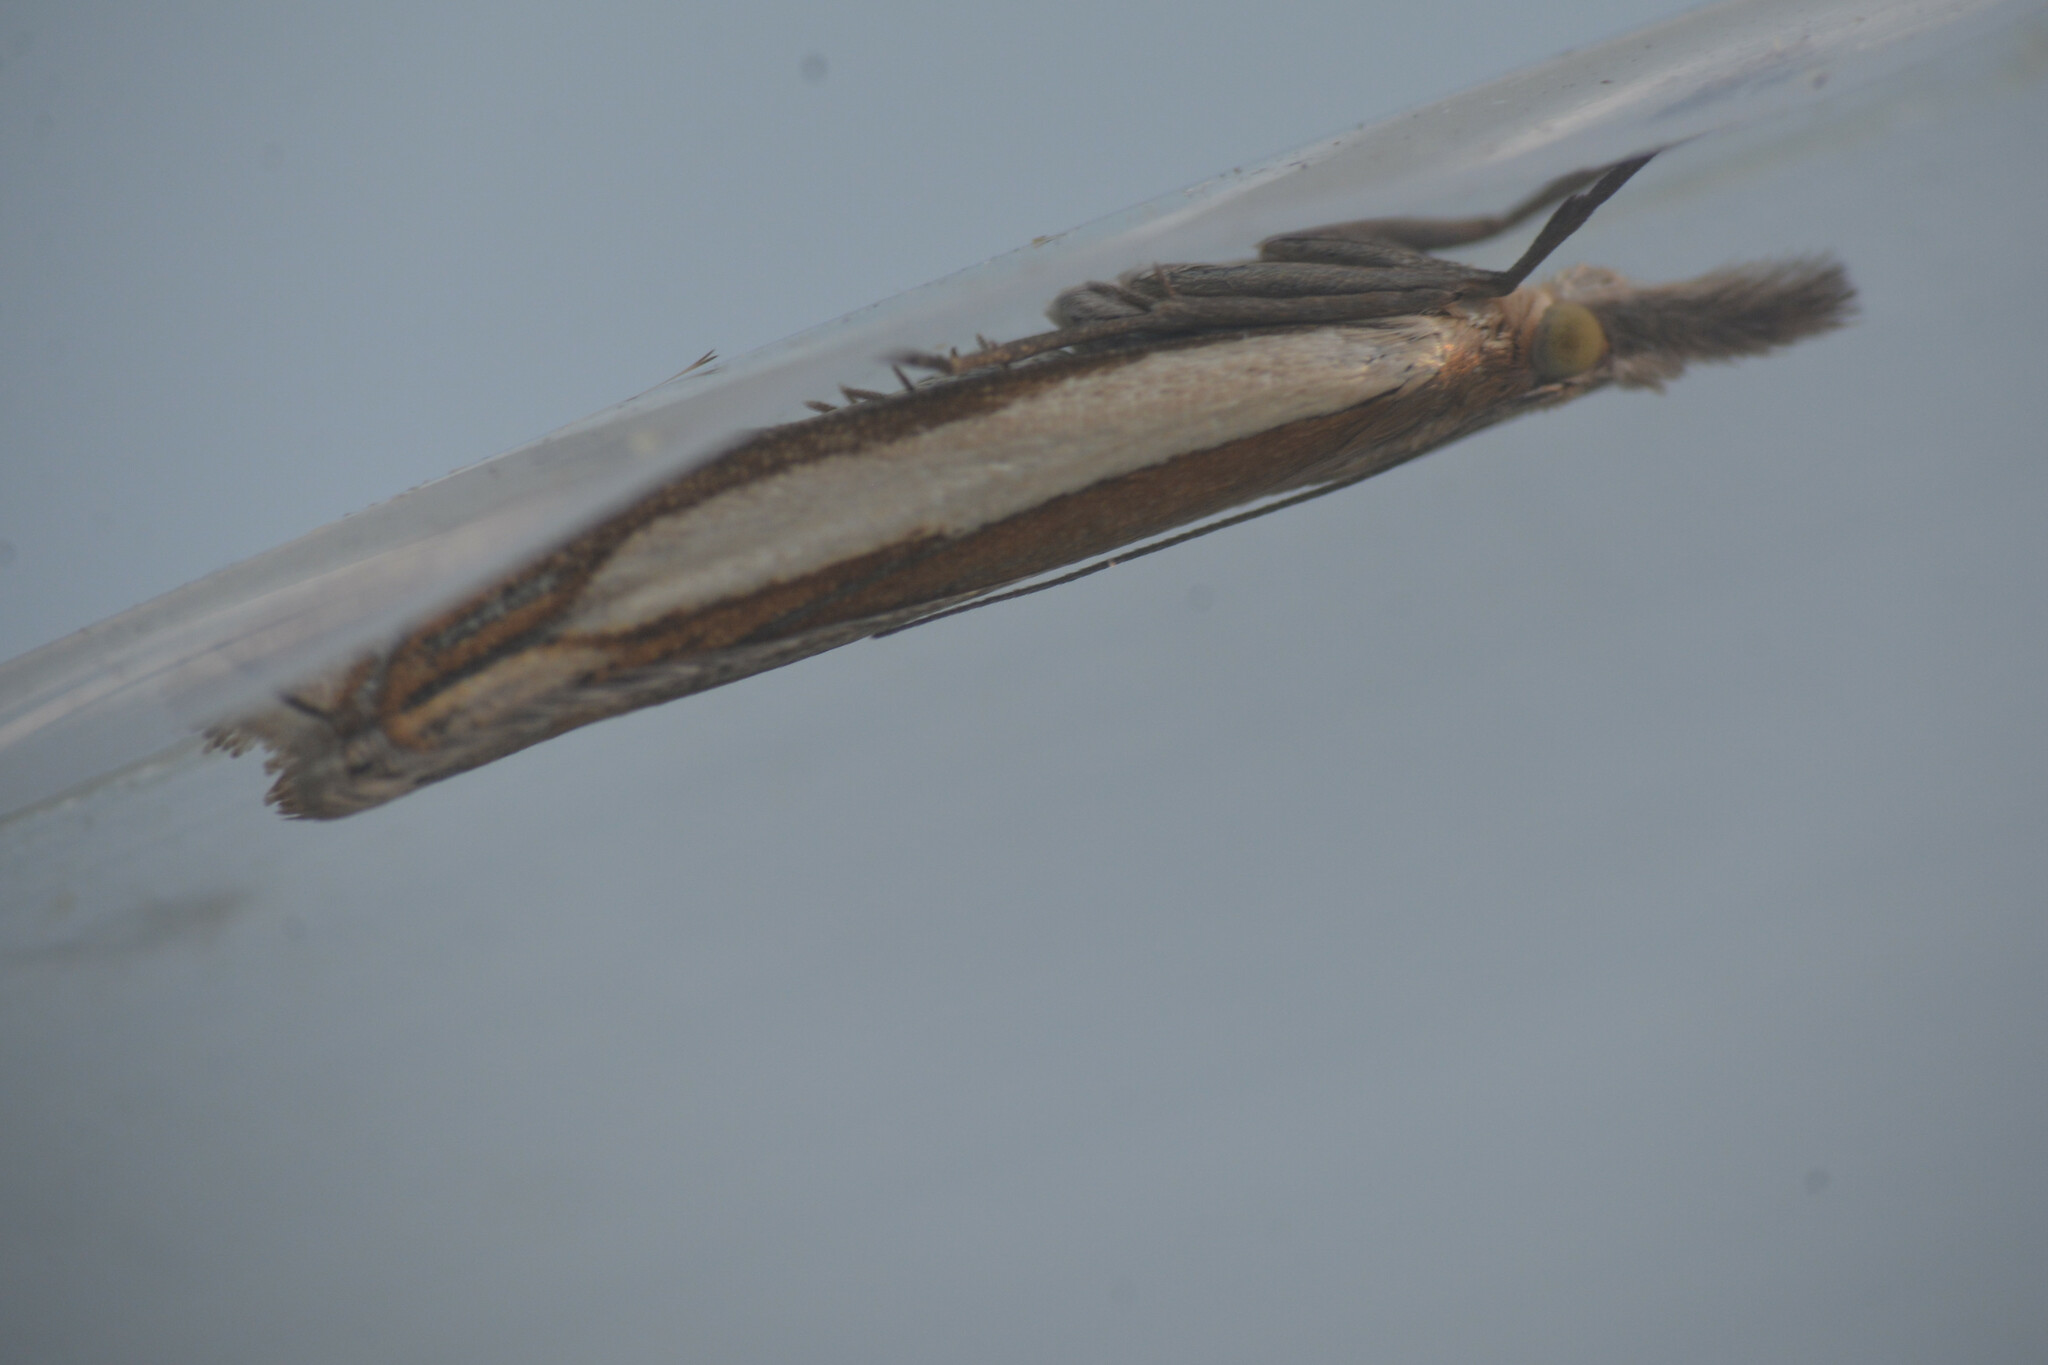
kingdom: Animalia
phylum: Arthropoda
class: Insecta
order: Lepidoptera
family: Crambidae
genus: Crambus
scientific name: Crambus pascuella
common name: Inlaid grass-veneer
